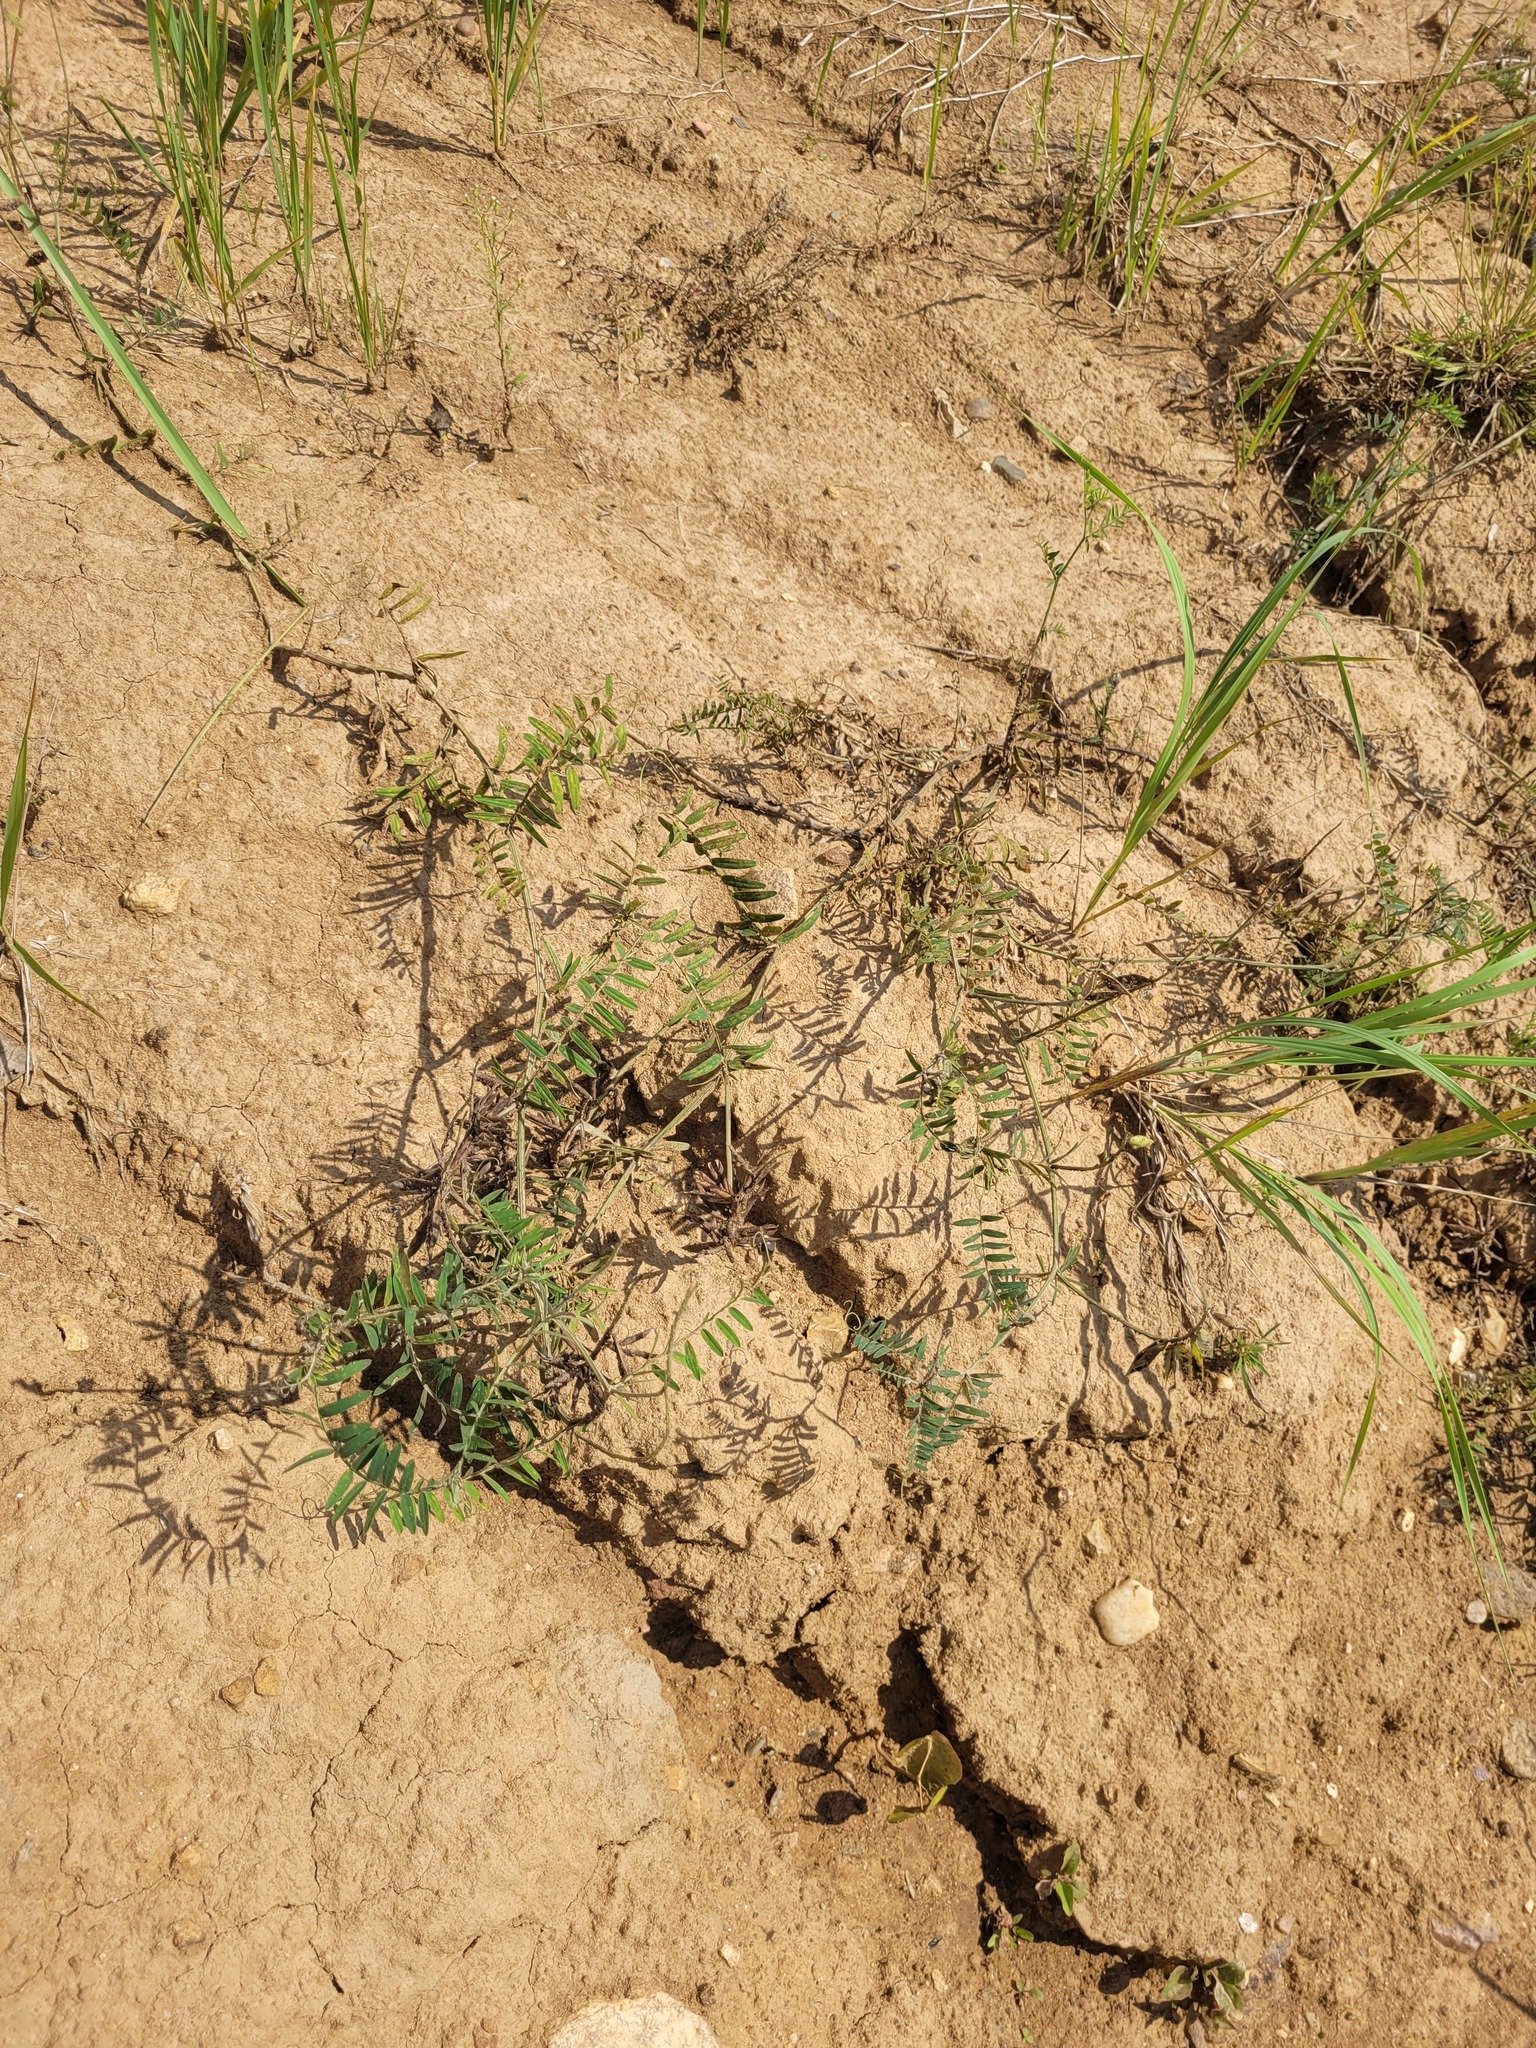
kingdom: Plantae
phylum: Tracheophyta
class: Magnoliopsida
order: Fabales
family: Fabaceae
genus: Vicia
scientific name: Vicia cracca
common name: Bird vetch
